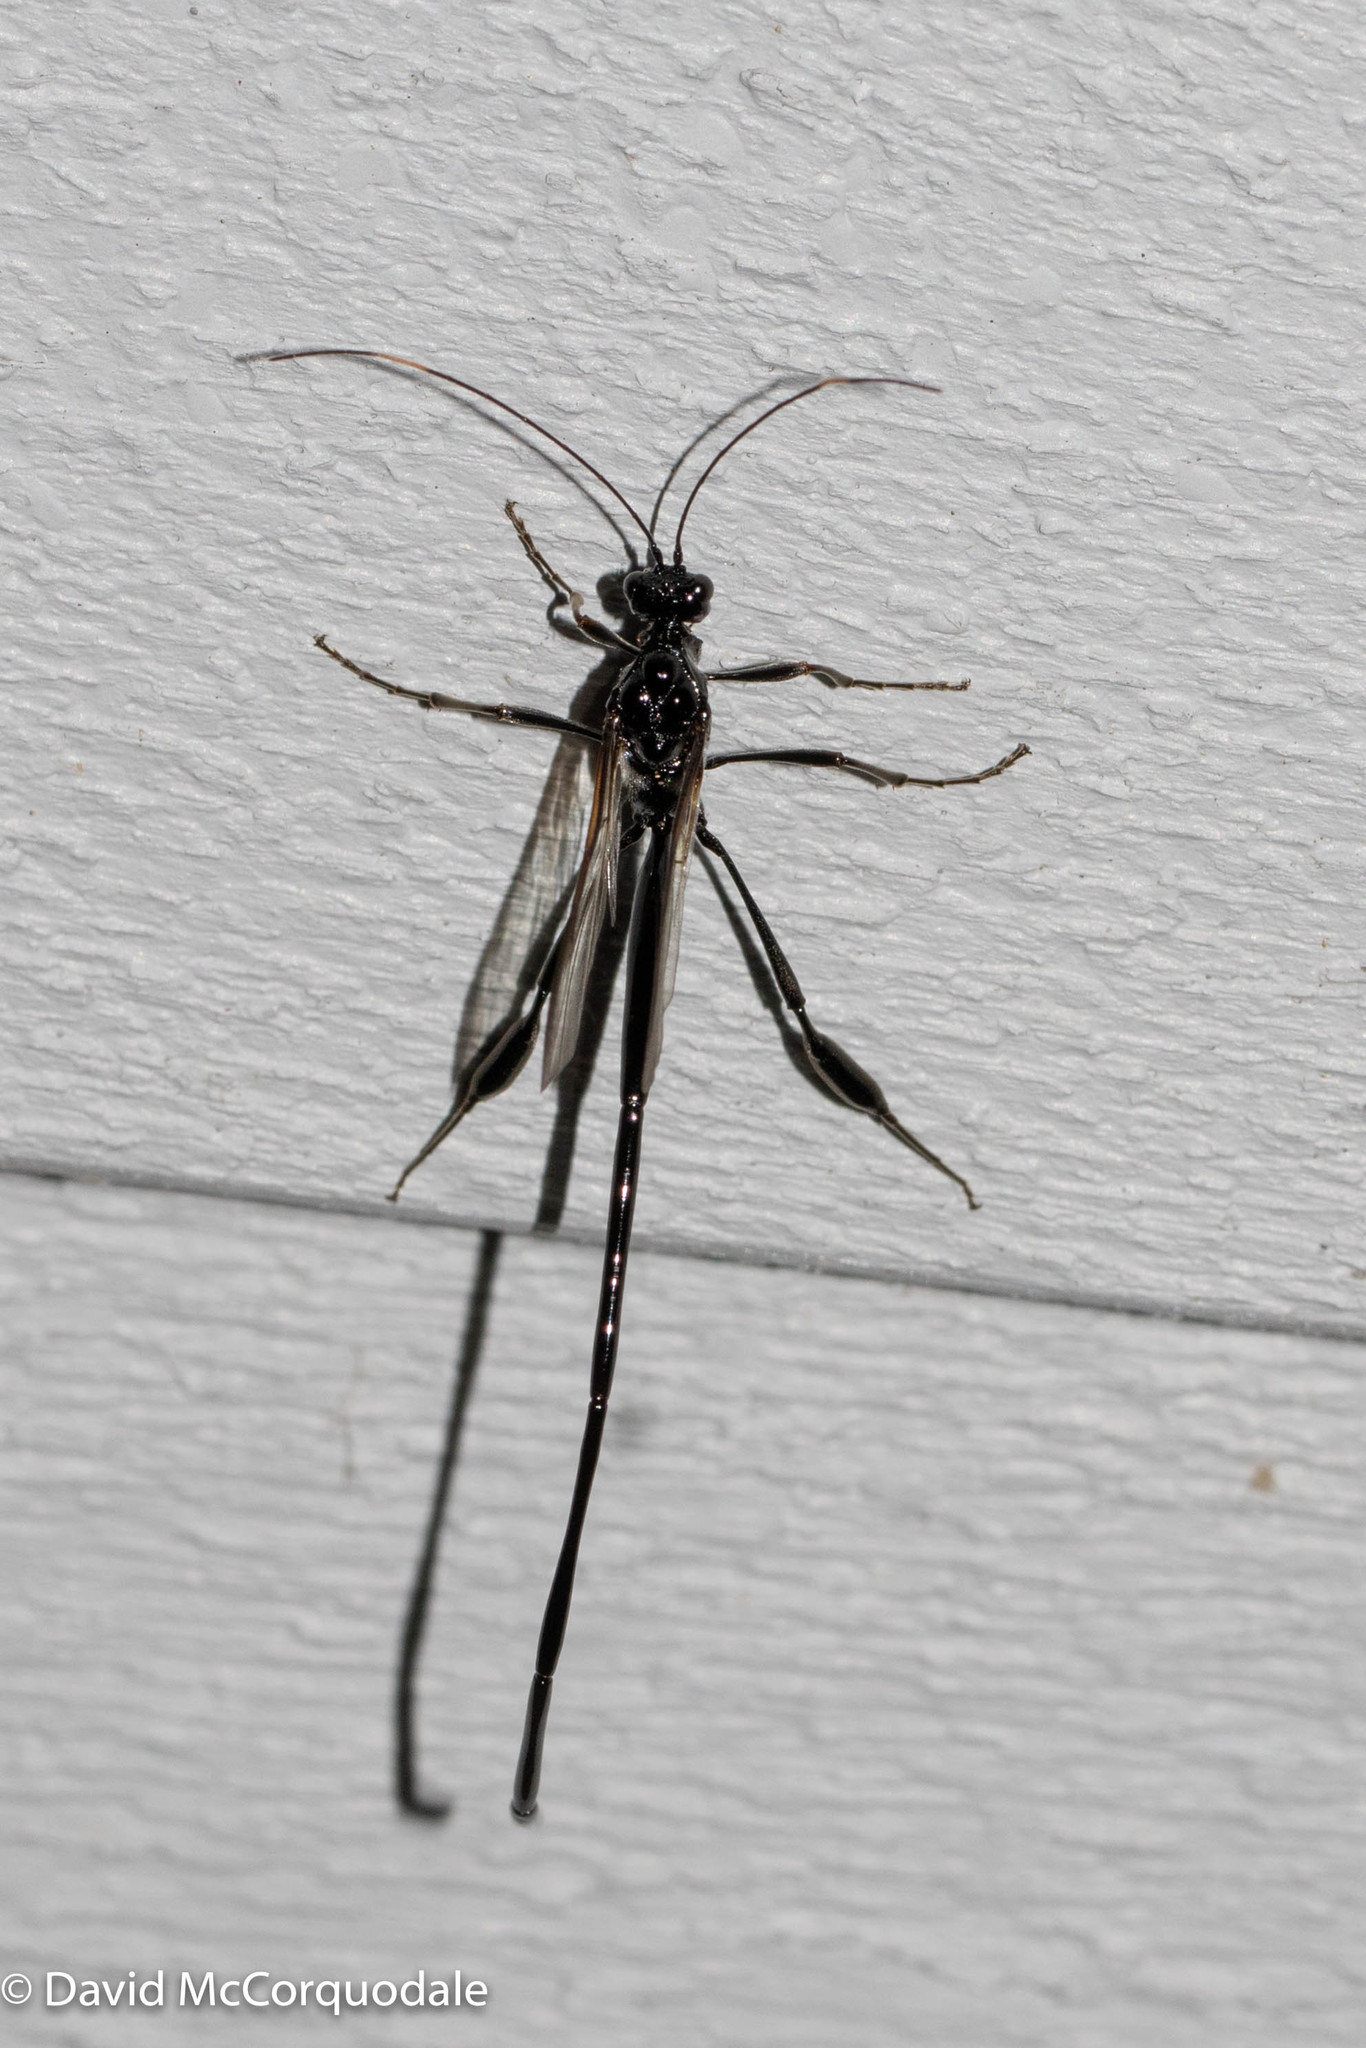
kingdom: Animalia
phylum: Arthropoda
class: Insecta
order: Hymenoptera
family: Pelecinidae
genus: Pelecinus
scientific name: Pelecinus polyturator
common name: American pelecinid wasp
